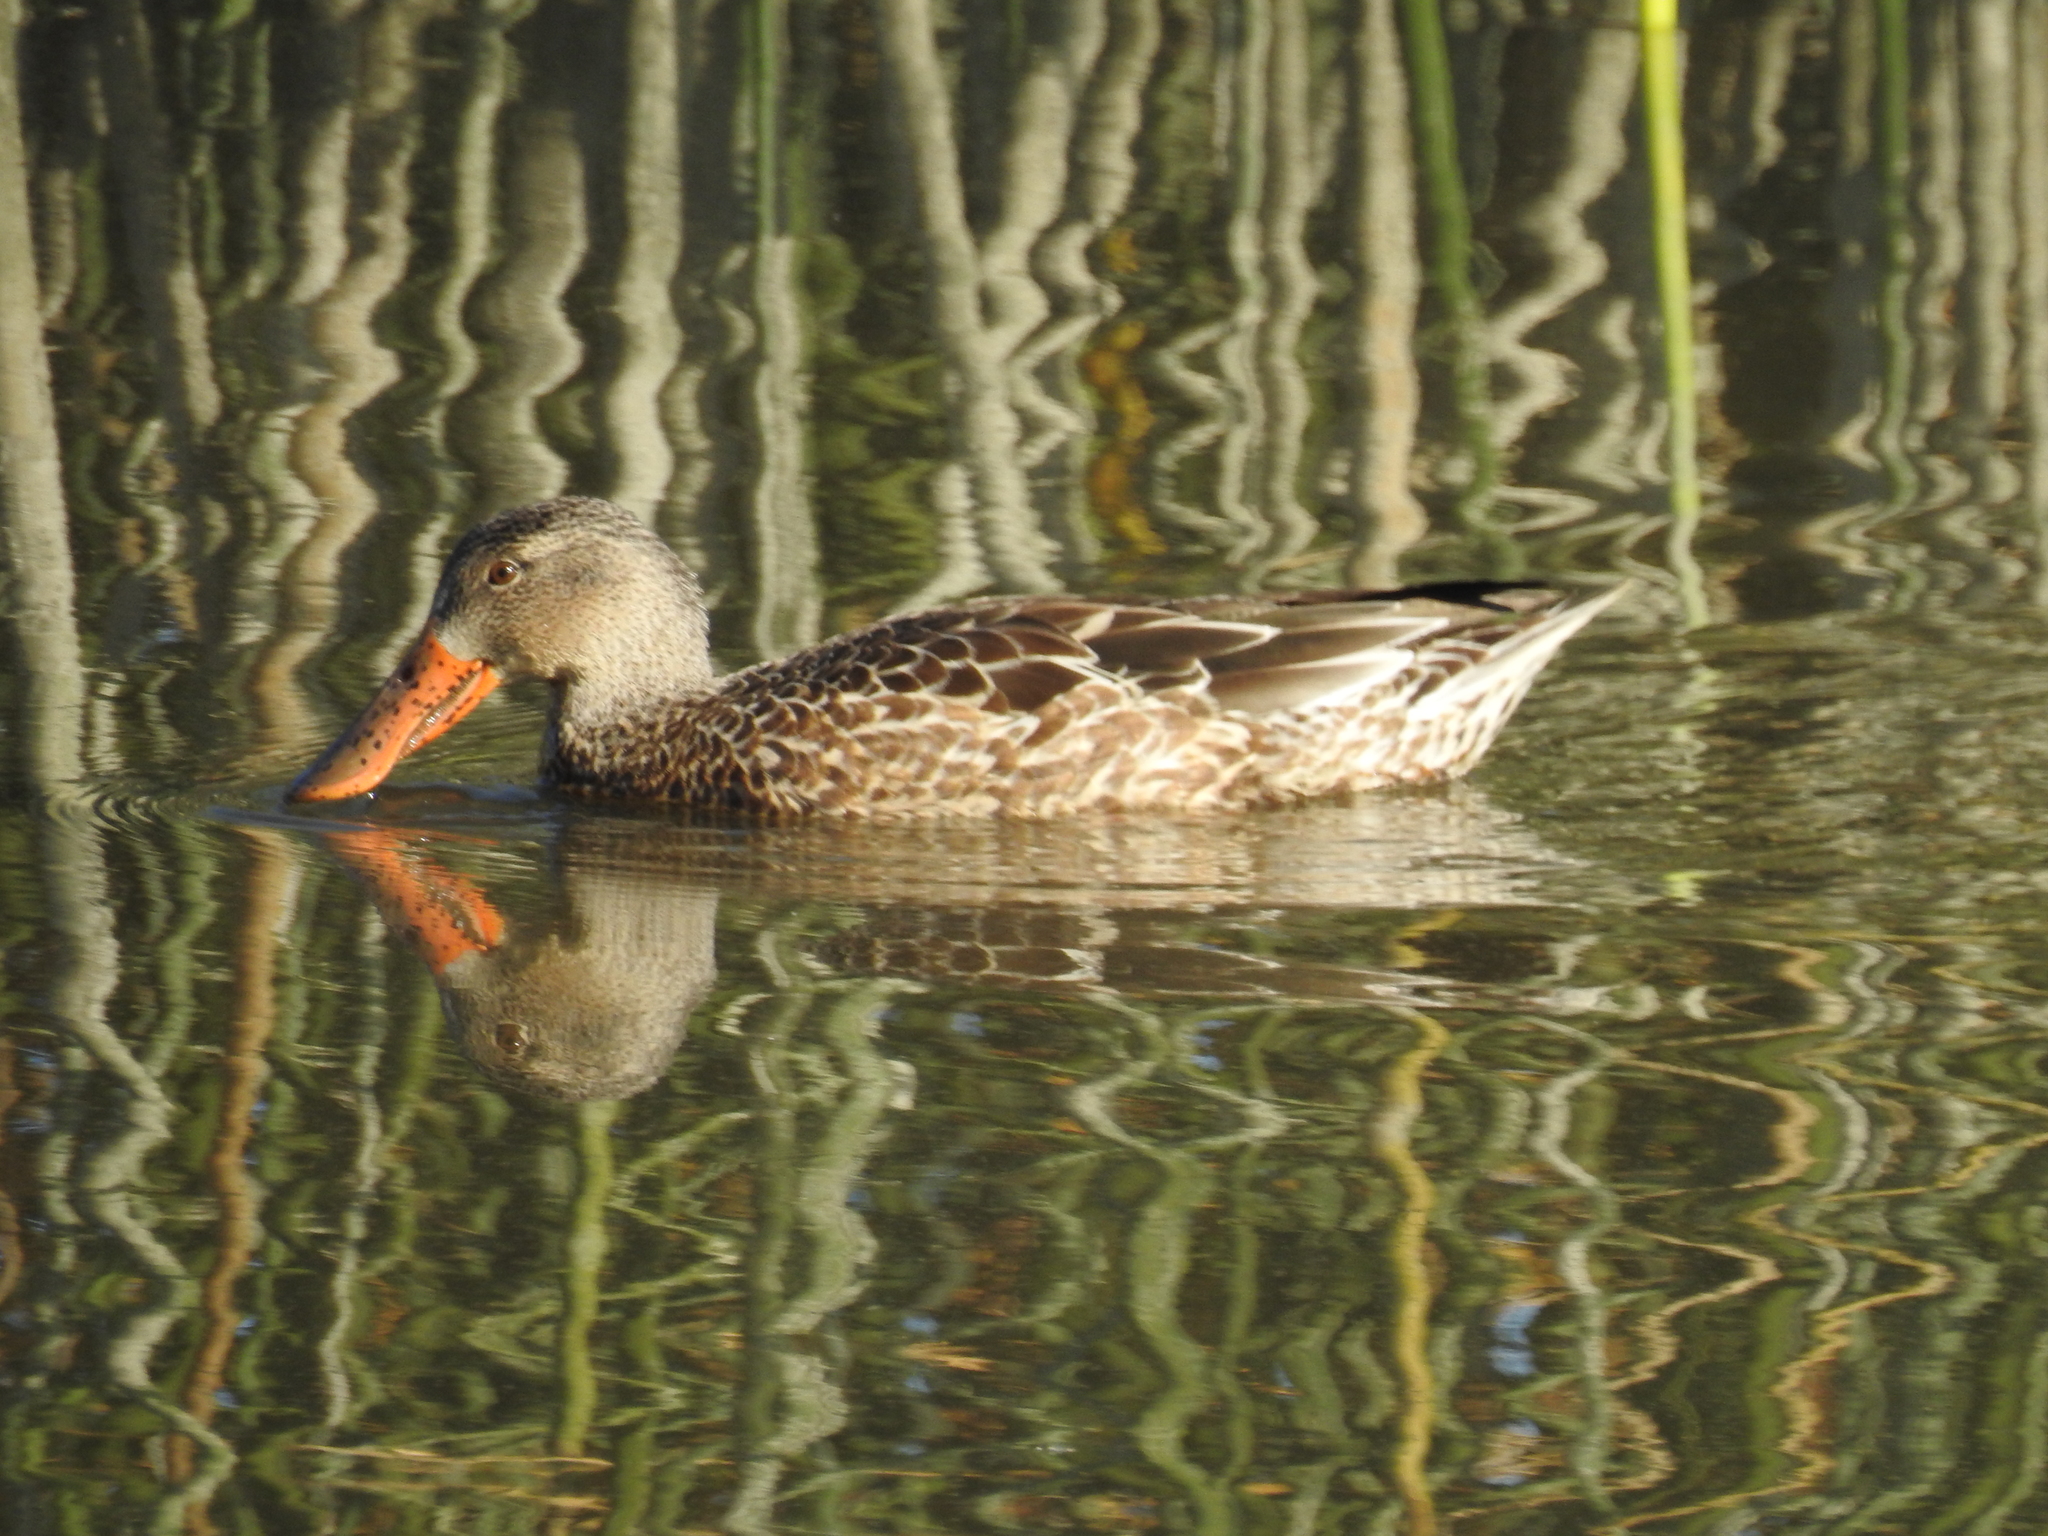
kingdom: Animalia
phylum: Chordata
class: Aves
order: Anseriformes
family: Anatidae
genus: Spatula
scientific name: Spatula clypeata
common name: Northern shoveler
